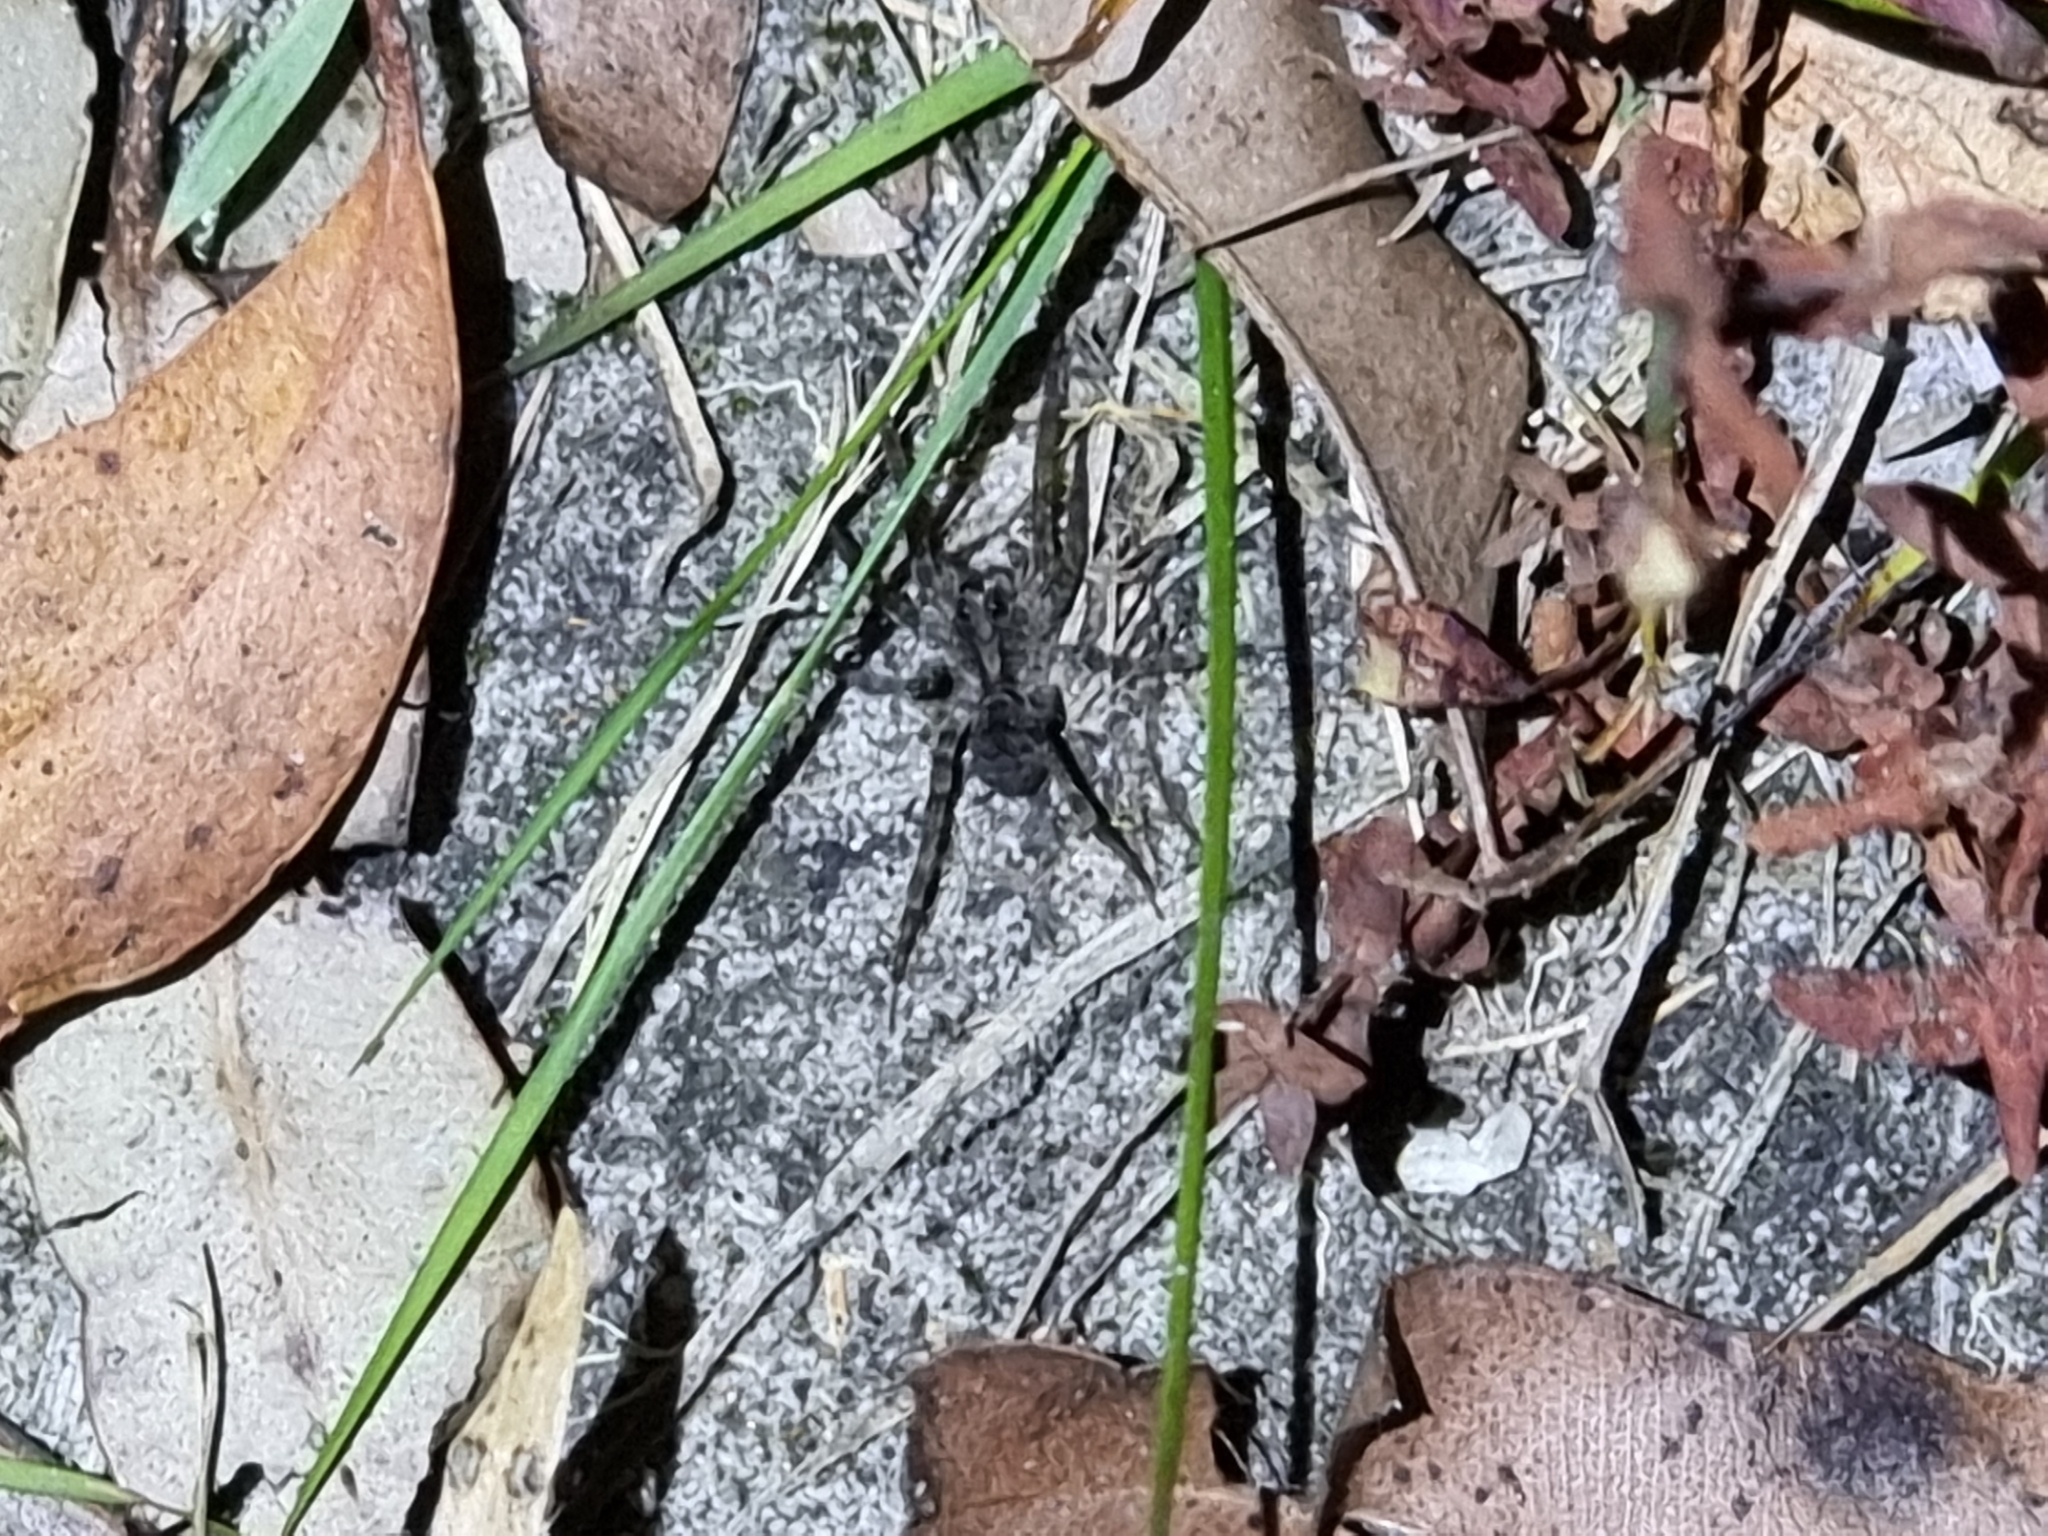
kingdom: Animalia
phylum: Arthropoda
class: Arachnida
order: Araneae
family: Lycosidae
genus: Venator
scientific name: Venator spenceri
